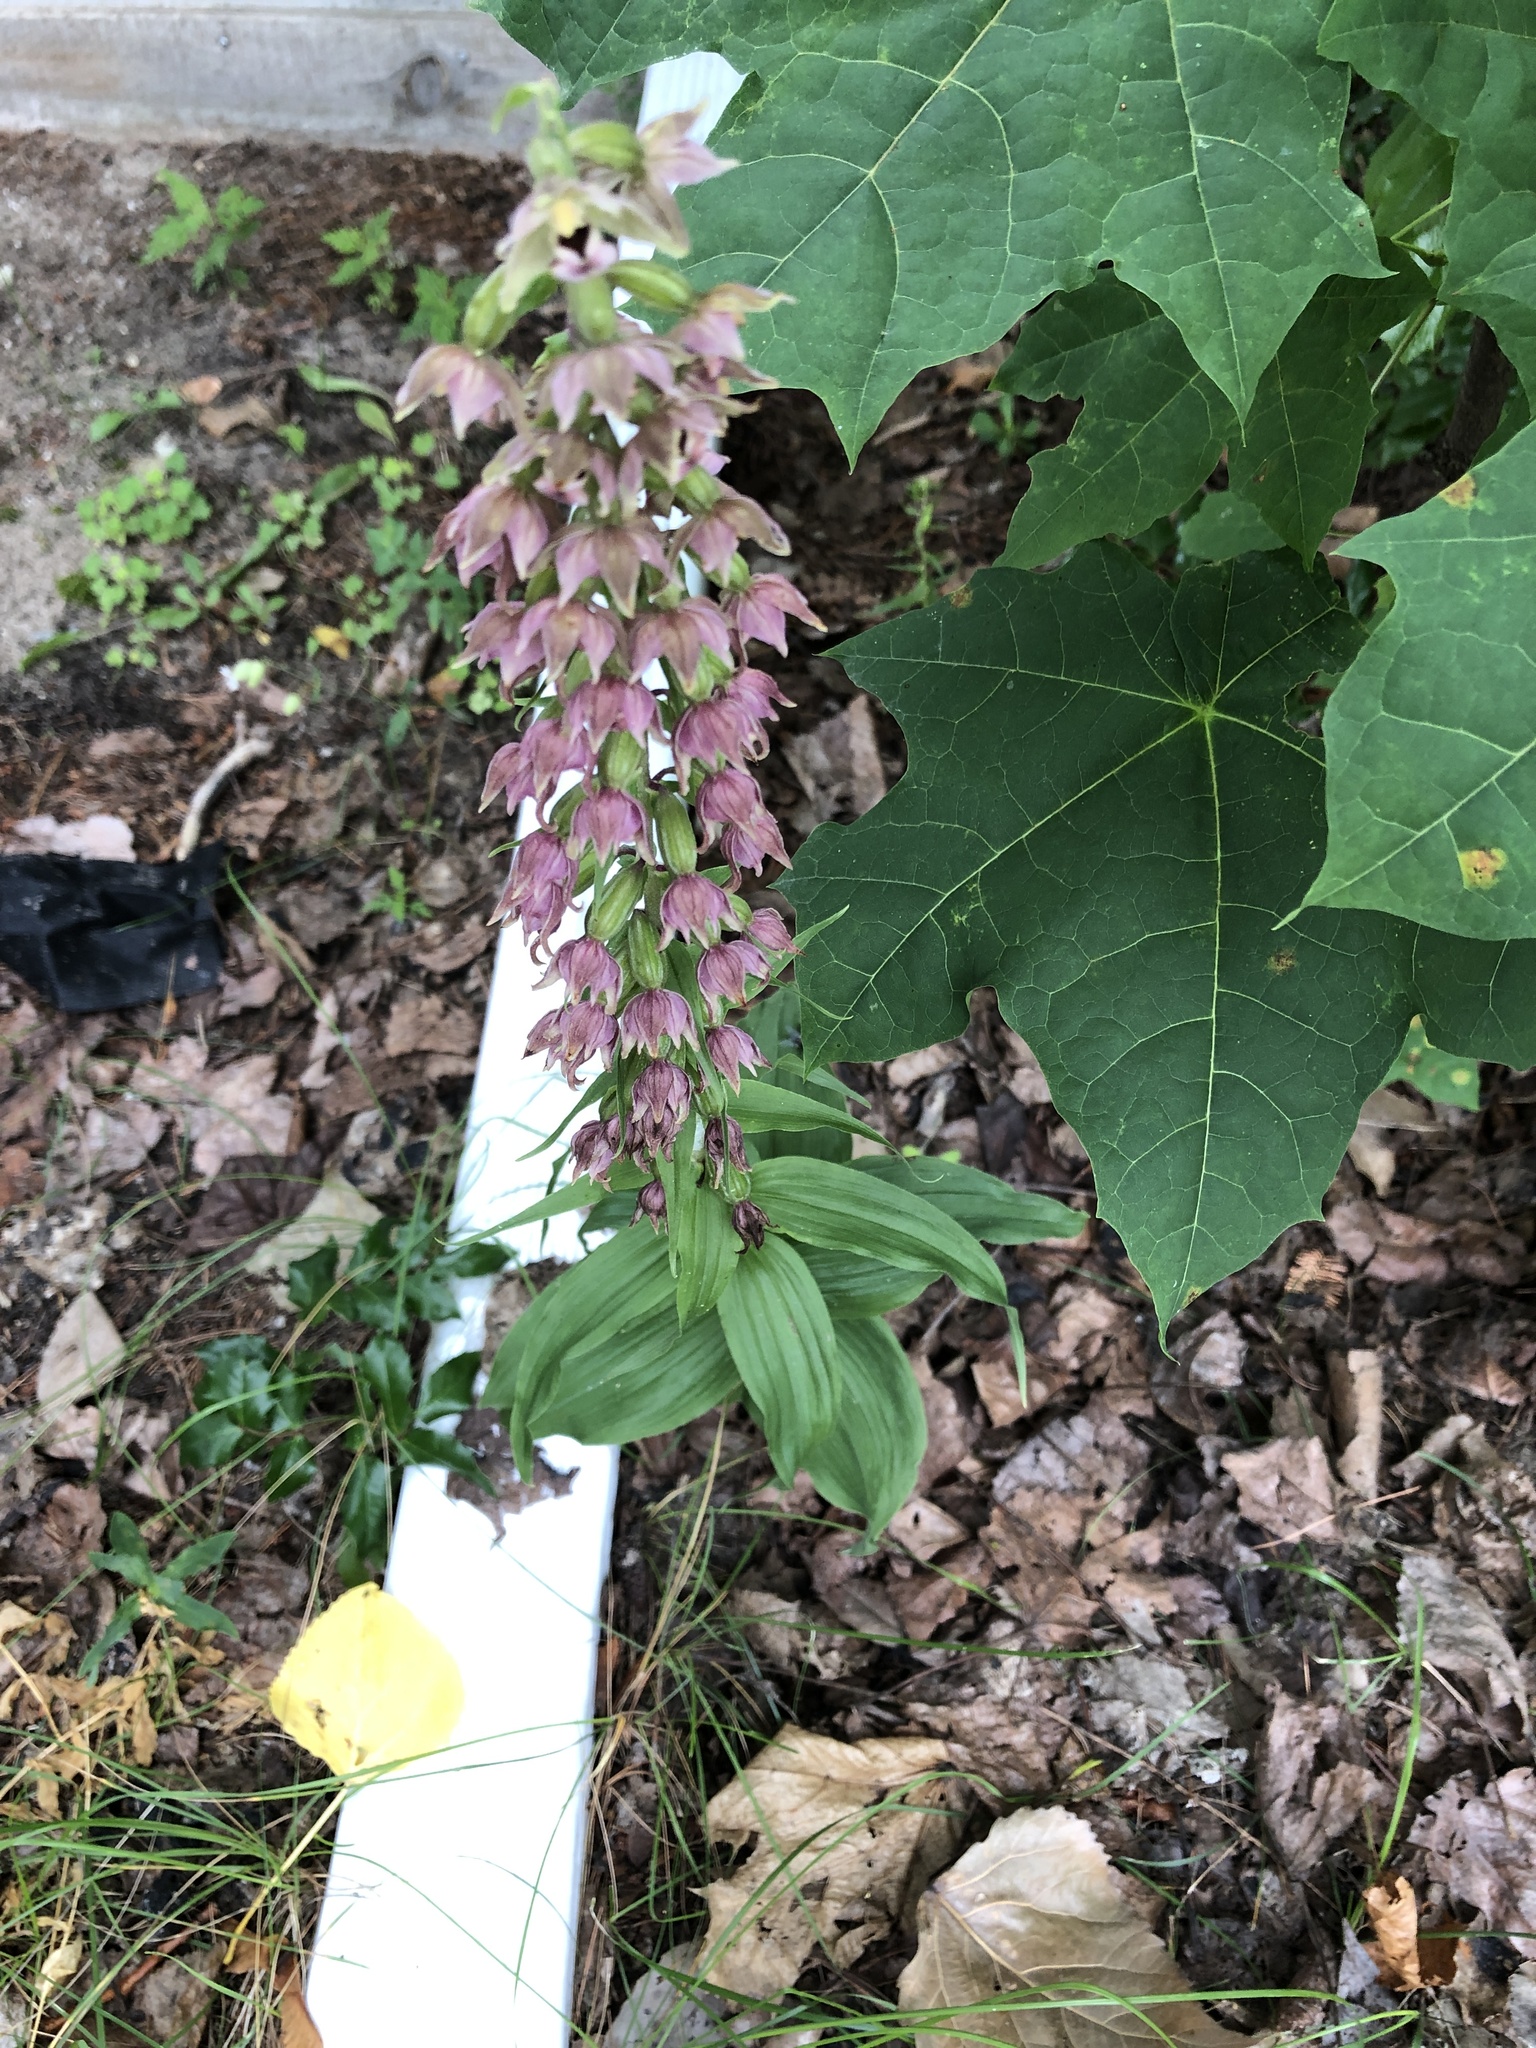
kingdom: Plantae
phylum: Tracheophyta
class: Liliopsida
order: Asparagales
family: Orchidaceae
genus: Epipactis
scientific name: Epipactis helleborine
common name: Broad-leaved helleborine
